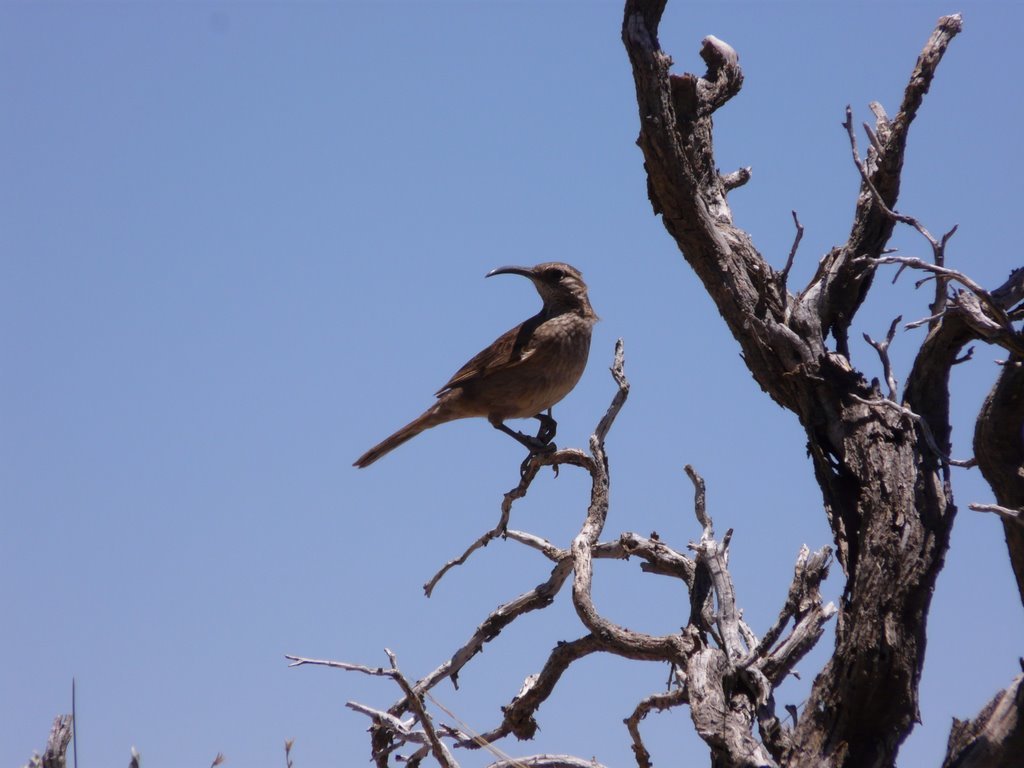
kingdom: Animalia
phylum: Chordata
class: Aves
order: Passeriformes
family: Furnariidae
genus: Upucerthia
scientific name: Upucerthia dumetaria
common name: Scale-throated earthcreeper
